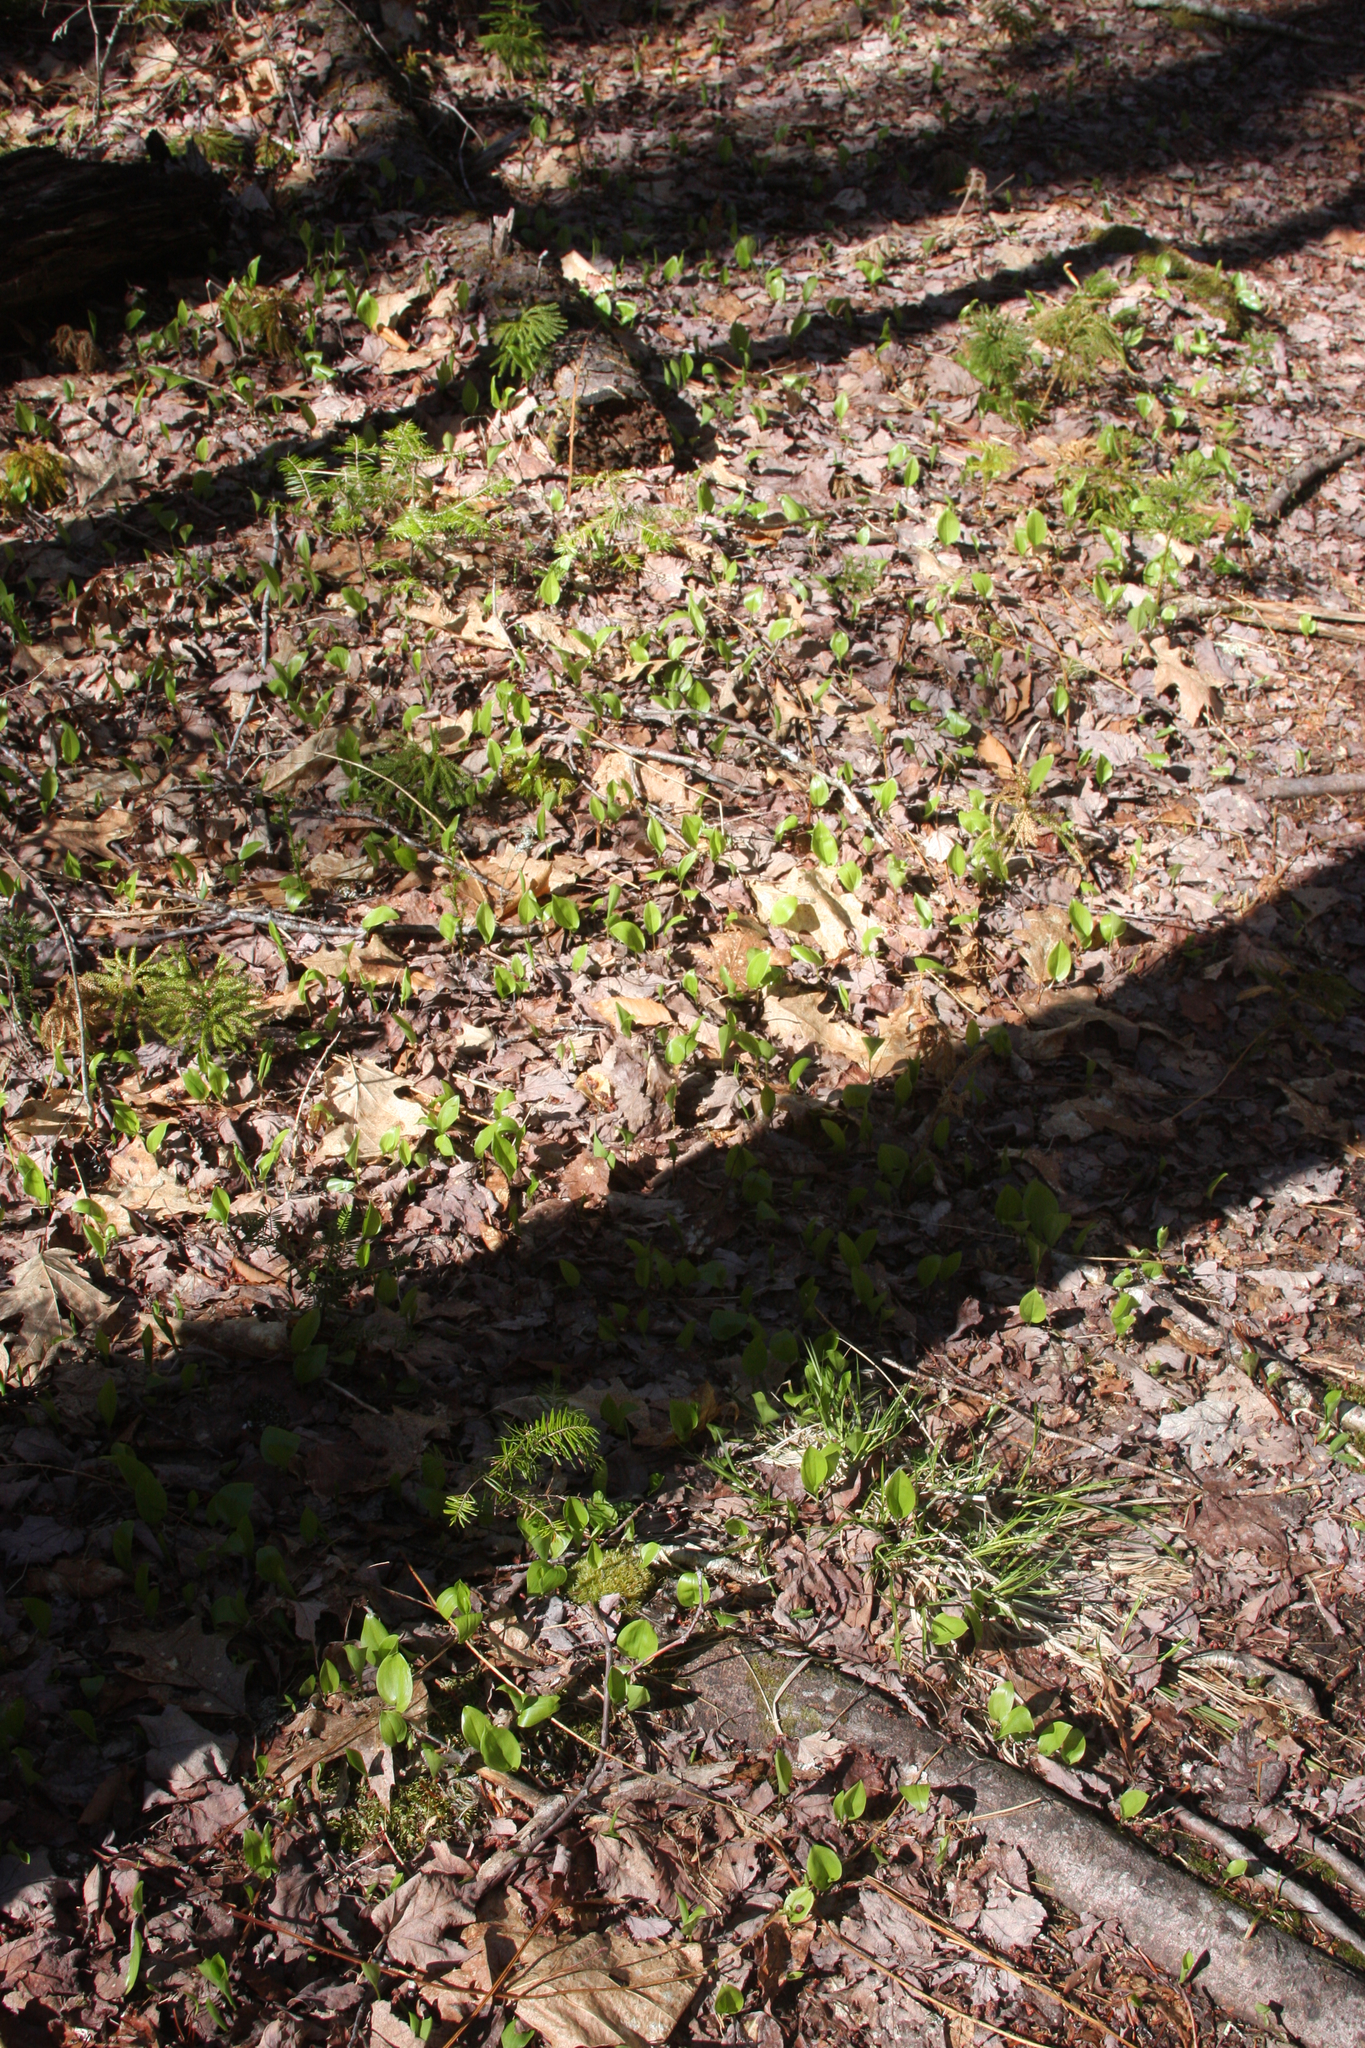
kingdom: Plantae
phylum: Tracheophyta
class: Liliopsida
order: Asparagales
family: Asparagaceae
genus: Maianthemum
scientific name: Maianthemum canadense
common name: False lily-of-the-valley
